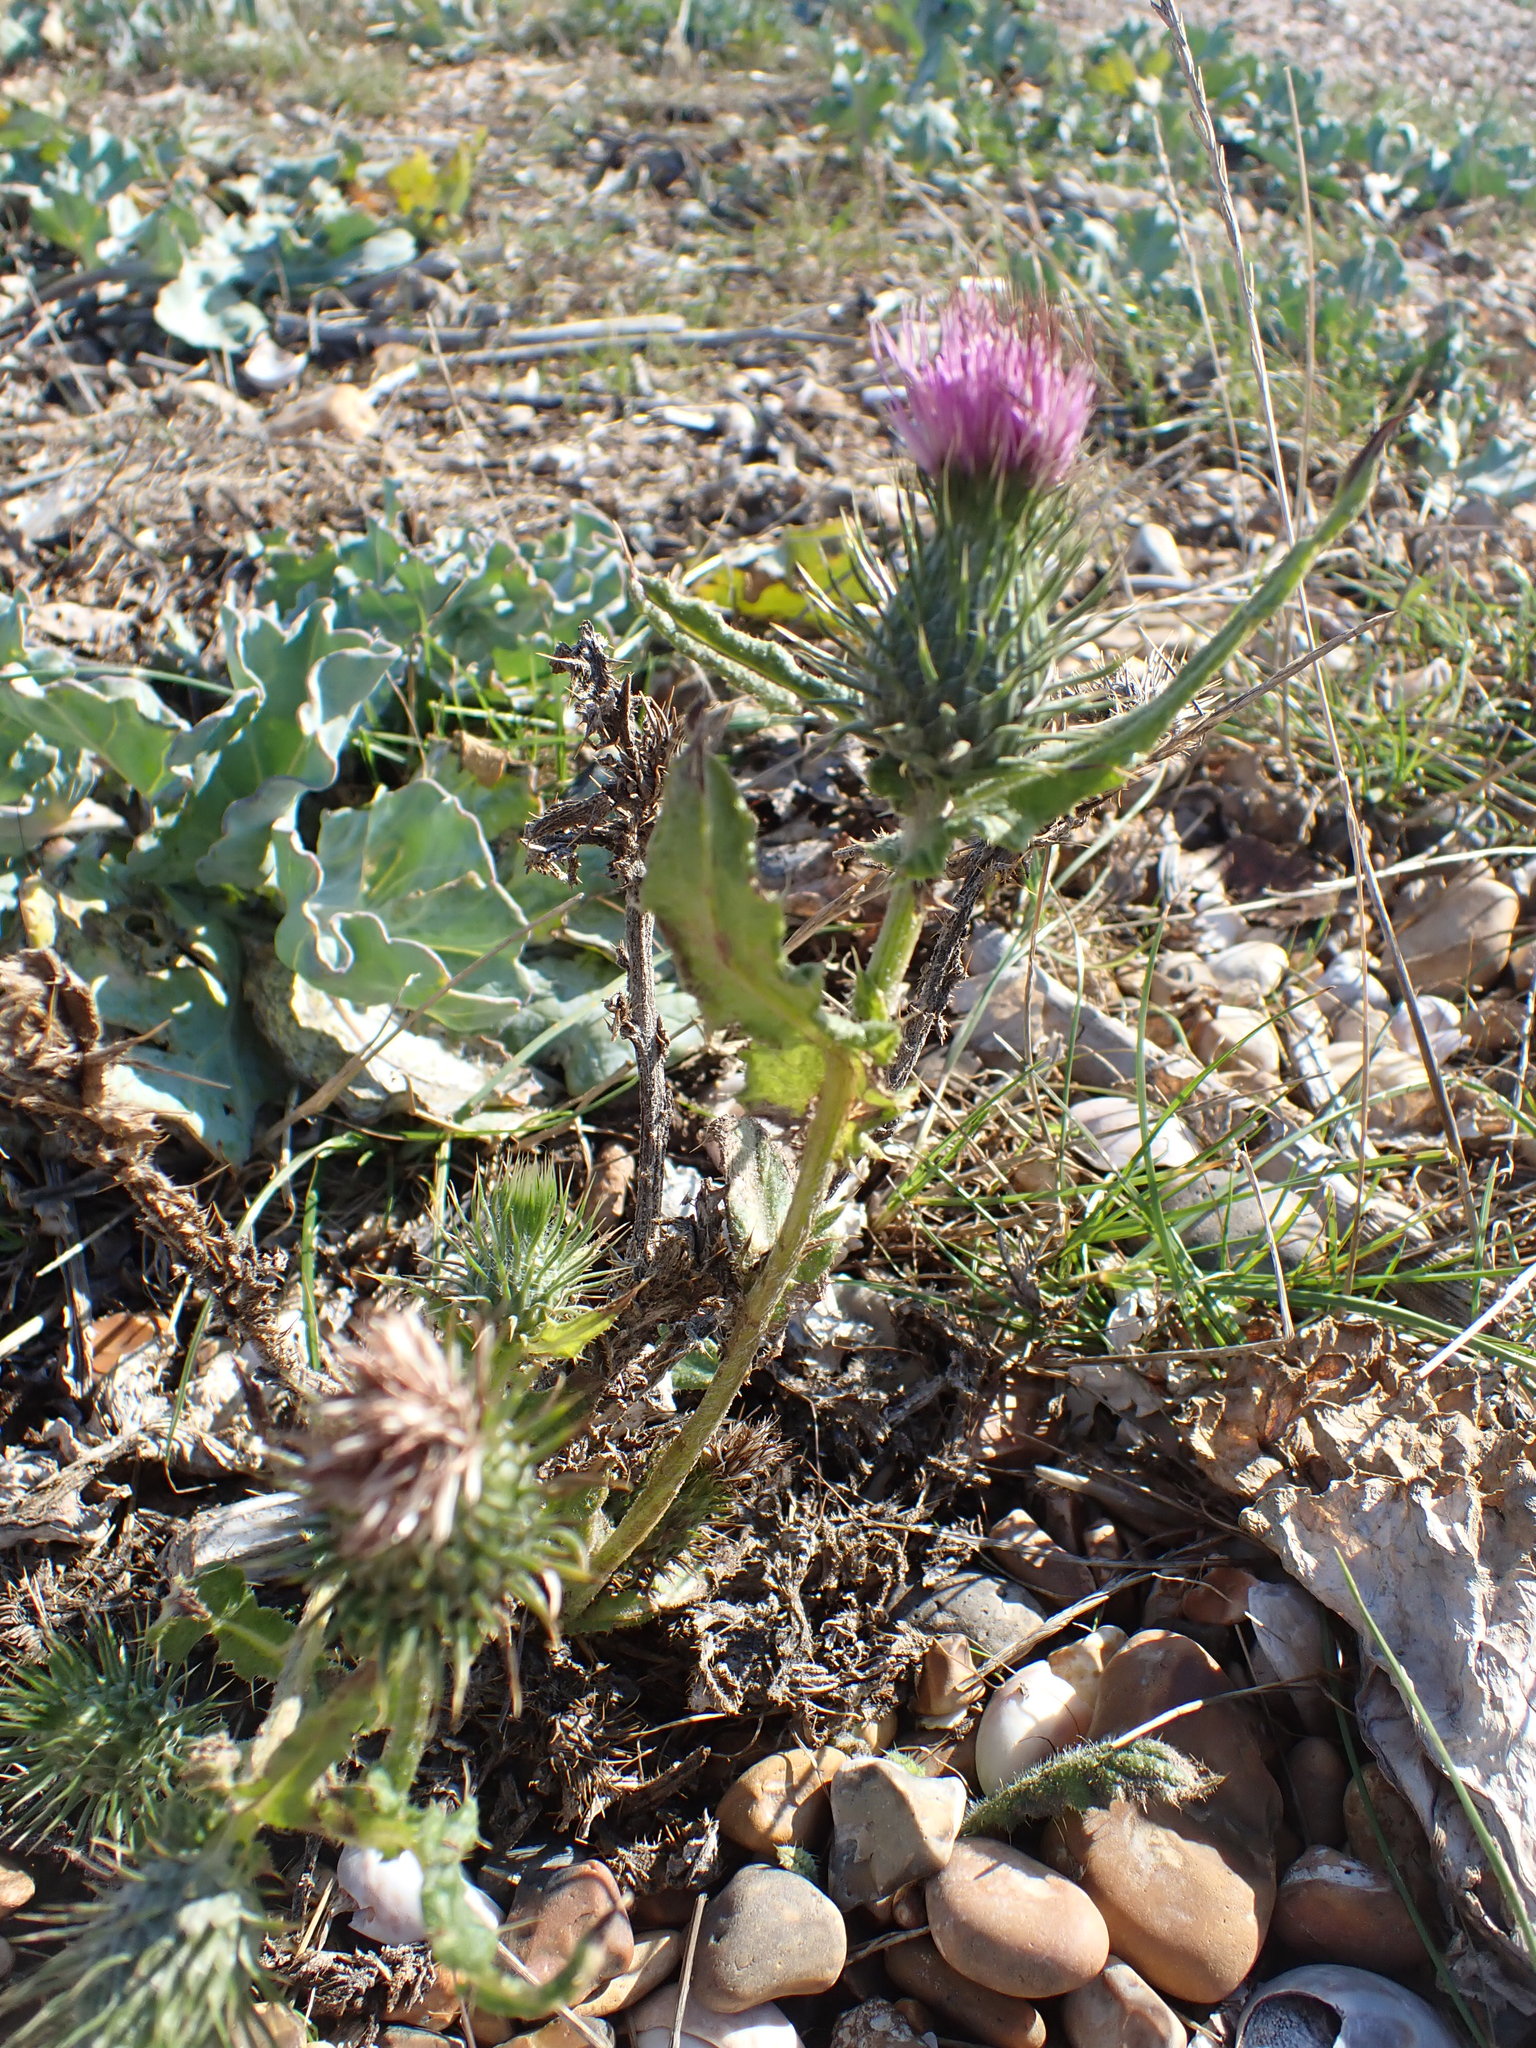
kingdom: Plantae
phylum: Tracheophyta
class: Magnoliopsida
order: Asterales
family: Asteraceae
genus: Cirsium
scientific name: Cirsium vulgare
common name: Bull thistle
